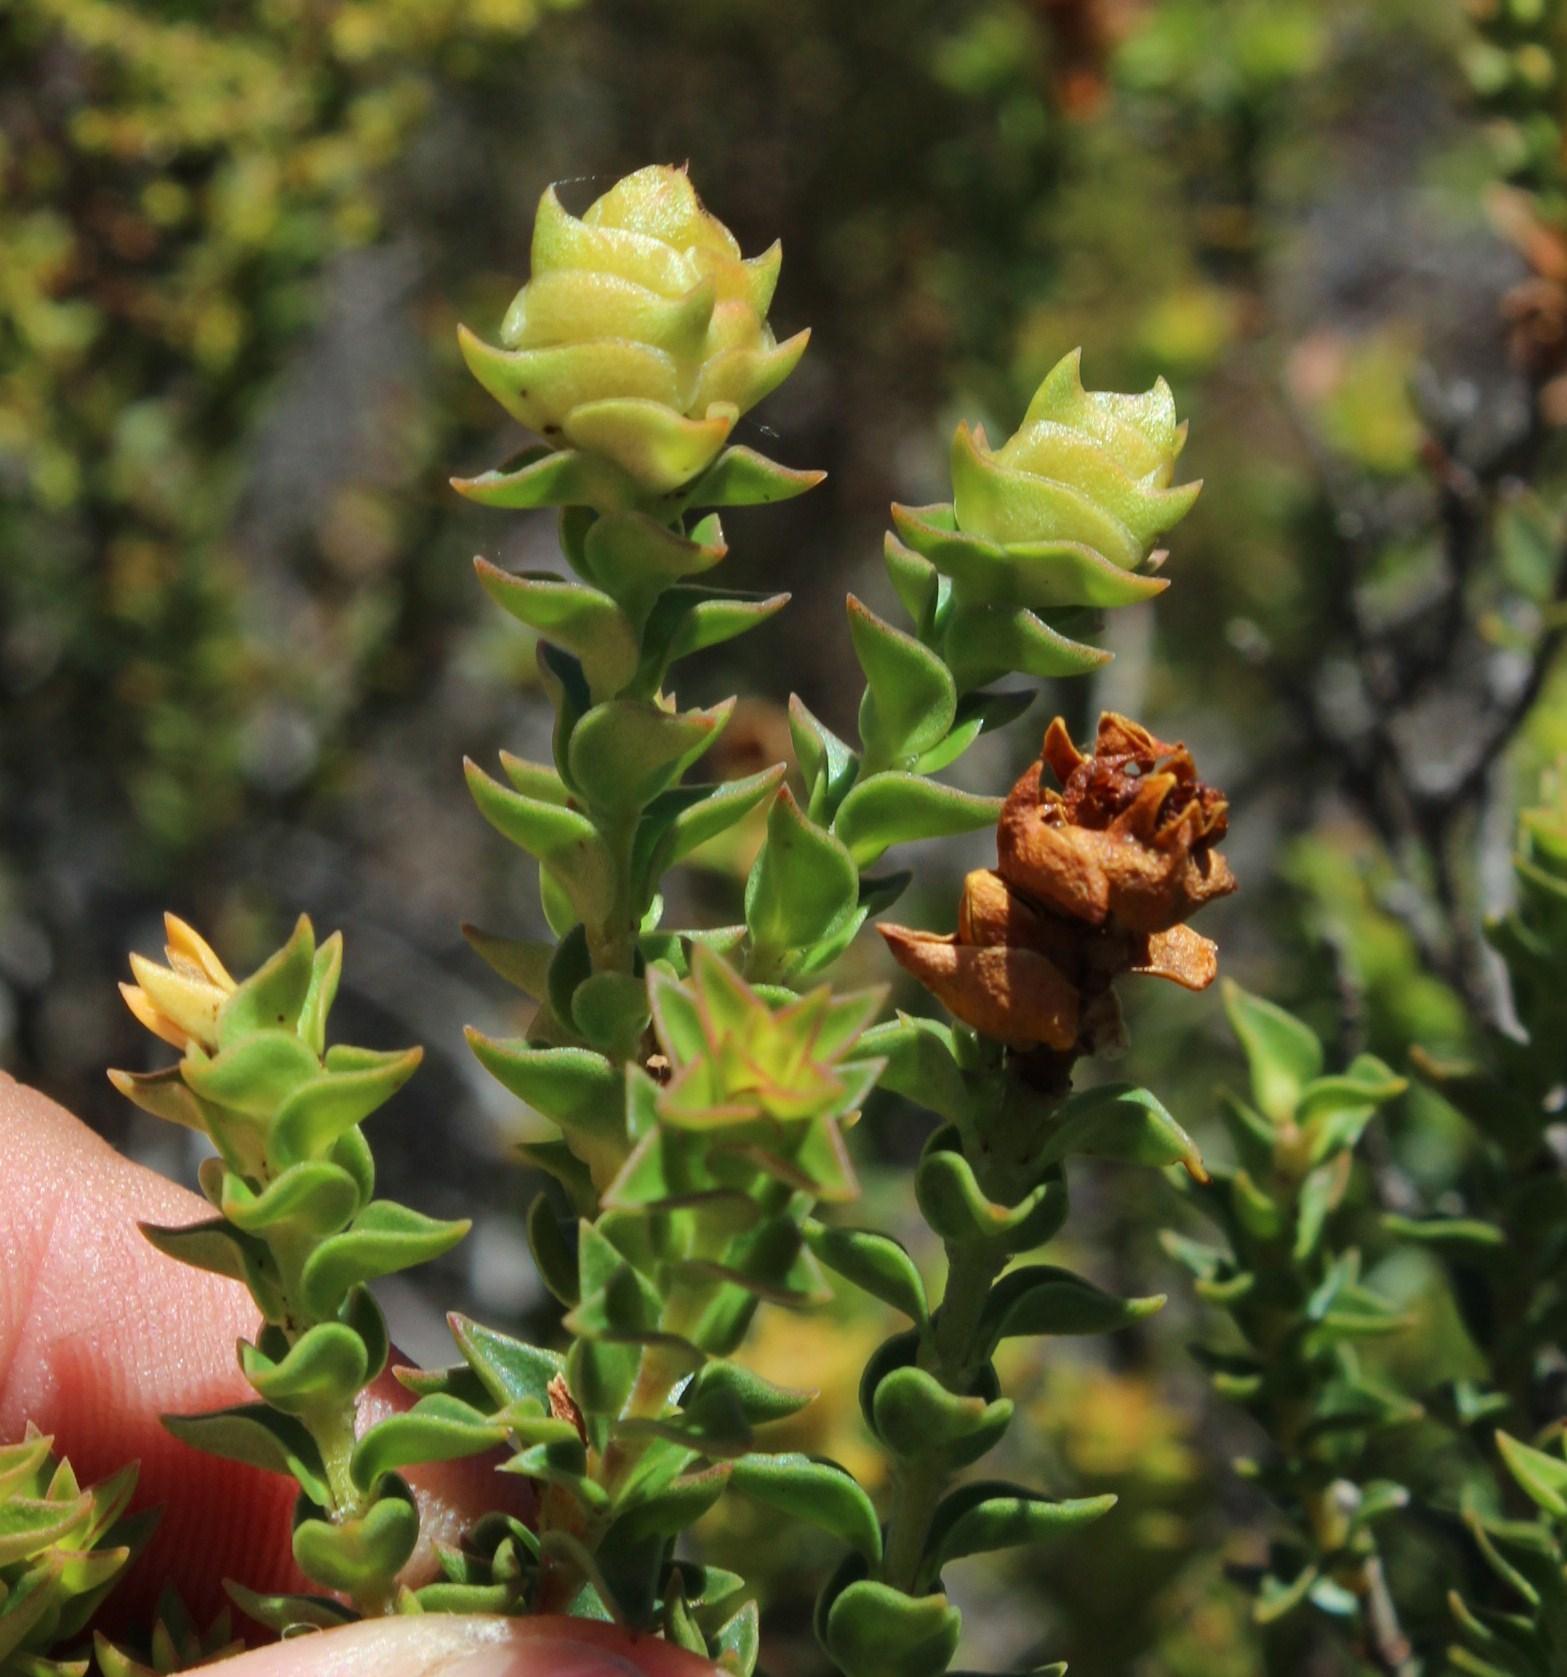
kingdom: Plantae
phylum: Tracheophyta
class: Magnoliopsida
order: Myrtales
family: Penaeaceae
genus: Penaea
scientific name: Penaea mucronata
